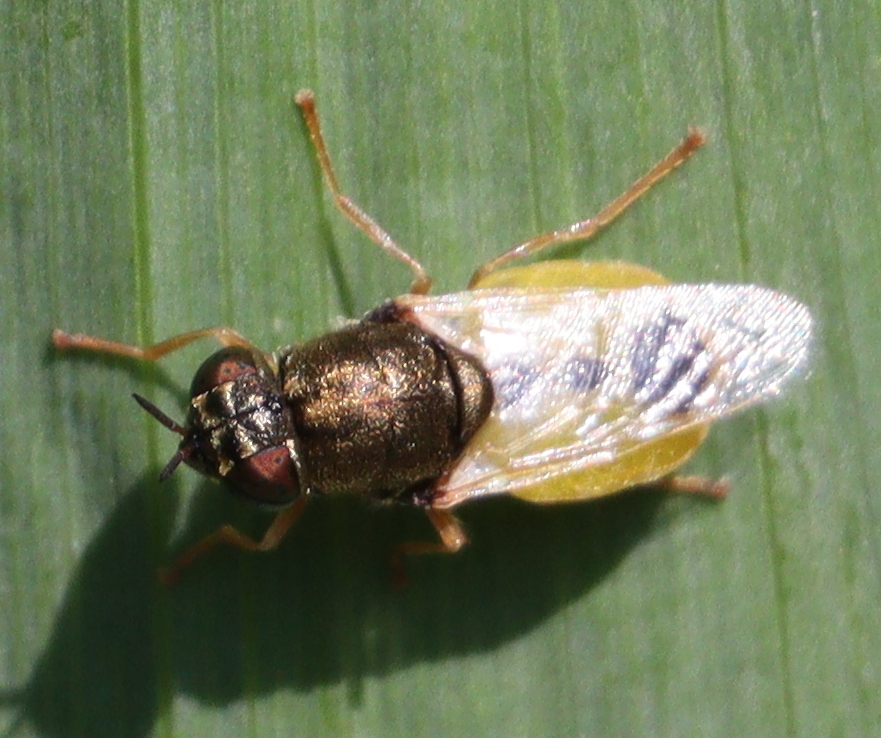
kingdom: Animalia
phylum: Arthropoda
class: Insecta
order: Diptera
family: Stratiomyidae
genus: Oplodontha
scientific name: Oplodontha viridula
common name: Common green colonel
